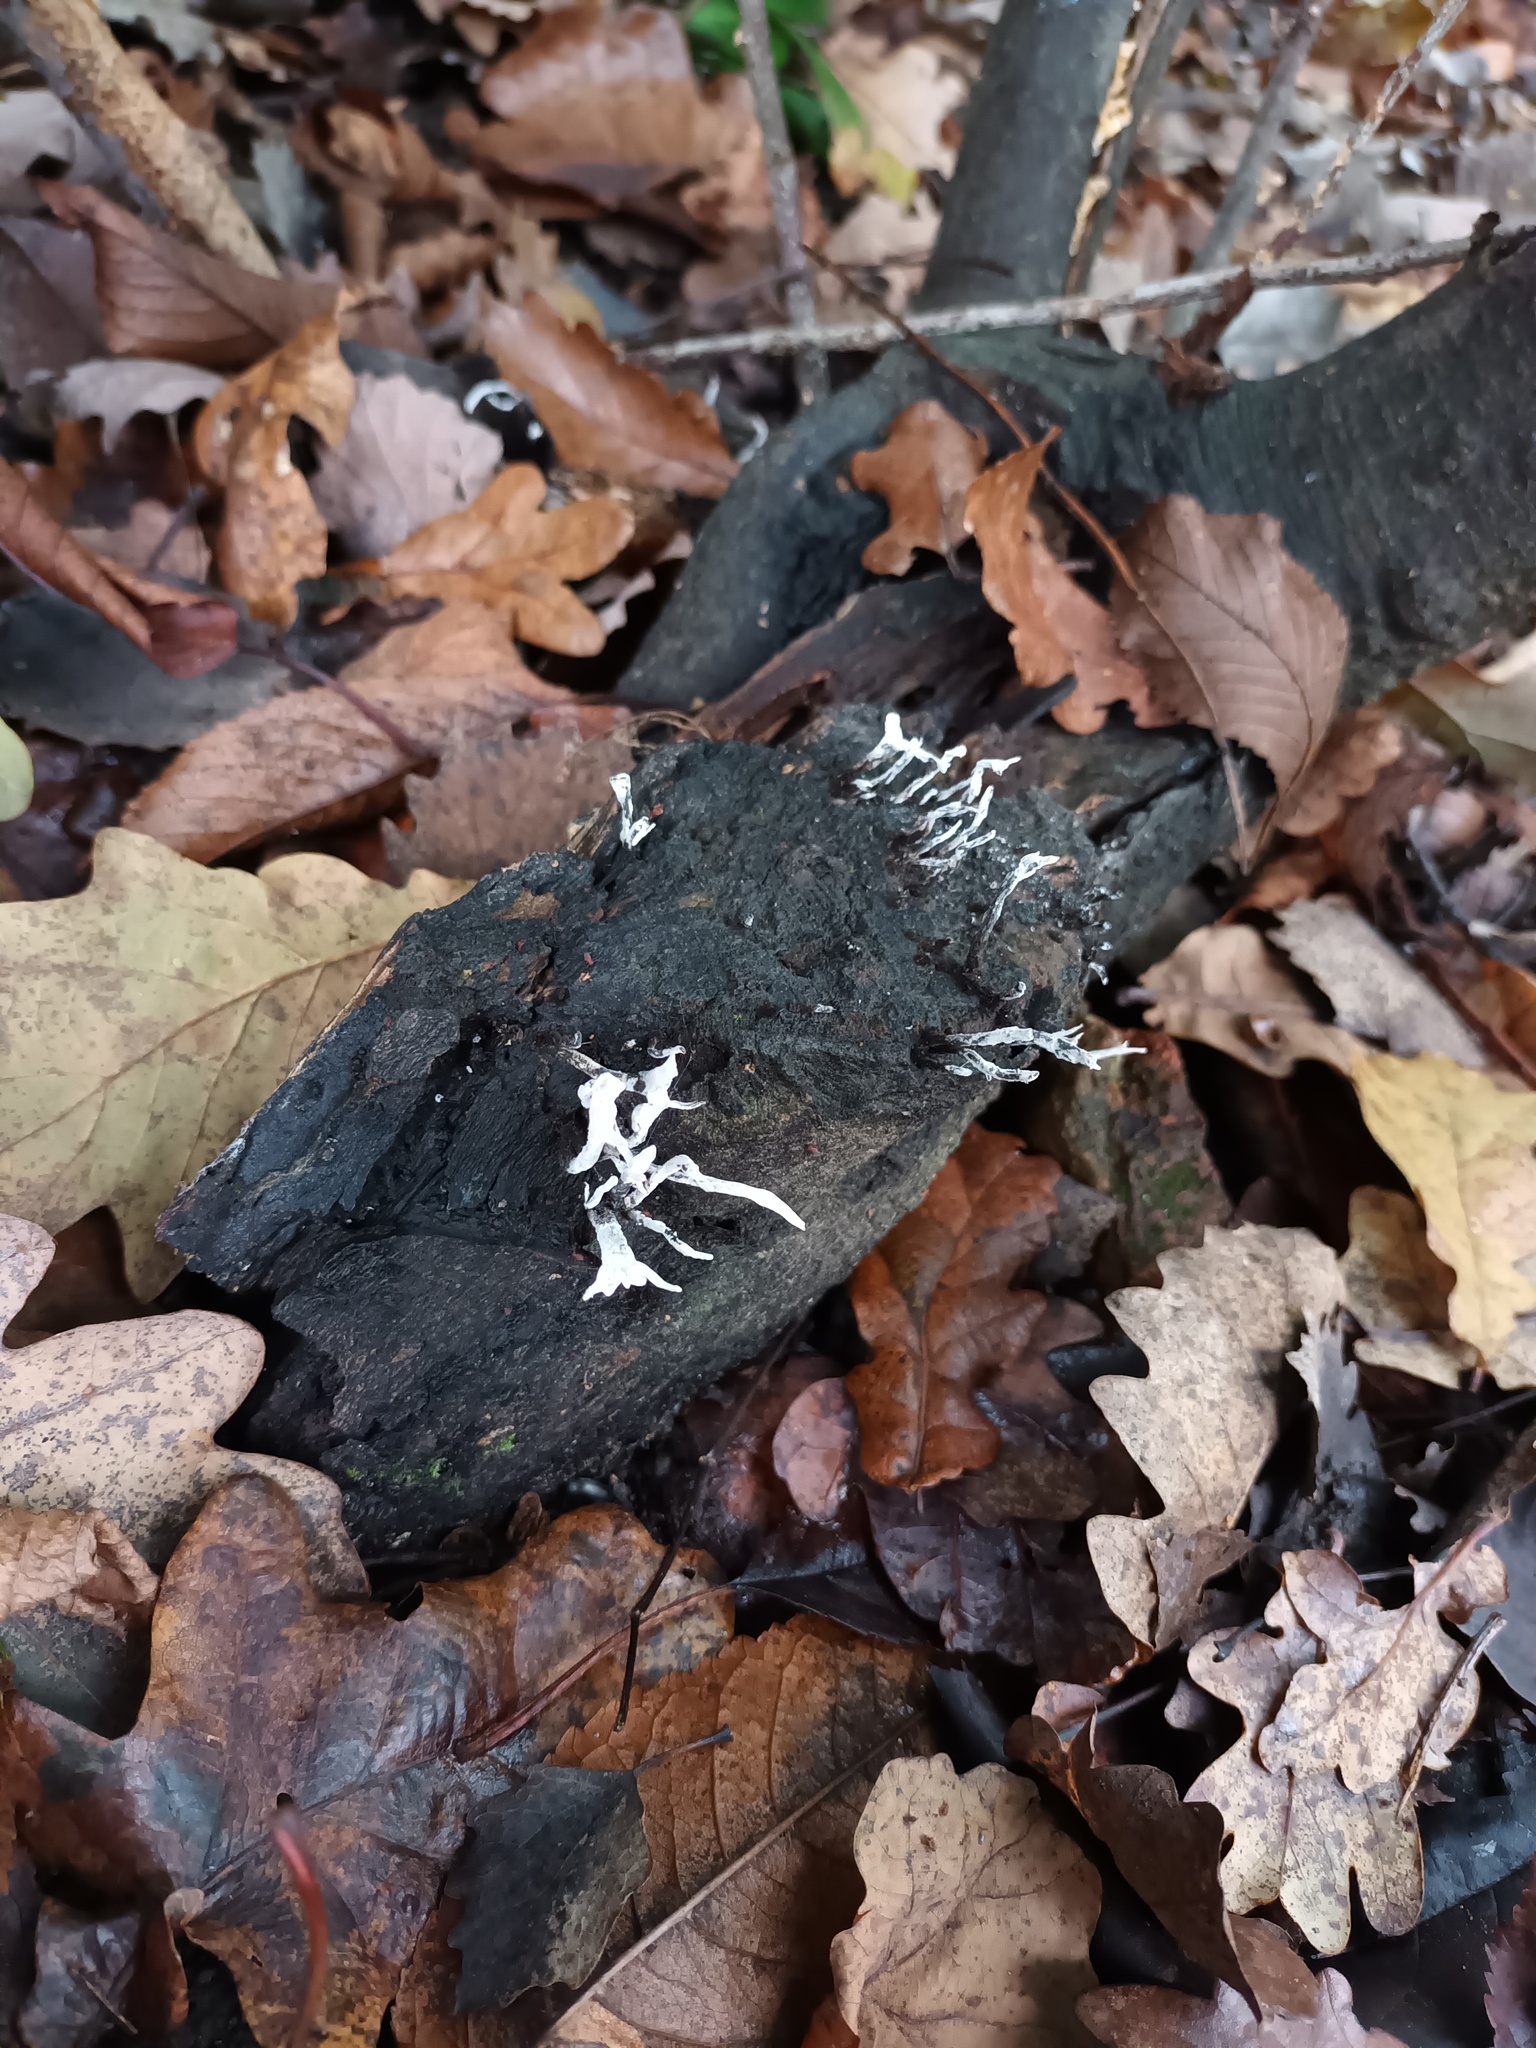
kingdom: Fungi
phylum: Ascomycota
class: Sordariomycetes
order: Xylariales
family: Xylariaceae
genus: Xylaria
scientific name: Xylaria hypoxylon
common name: Candle-snuff fungus
